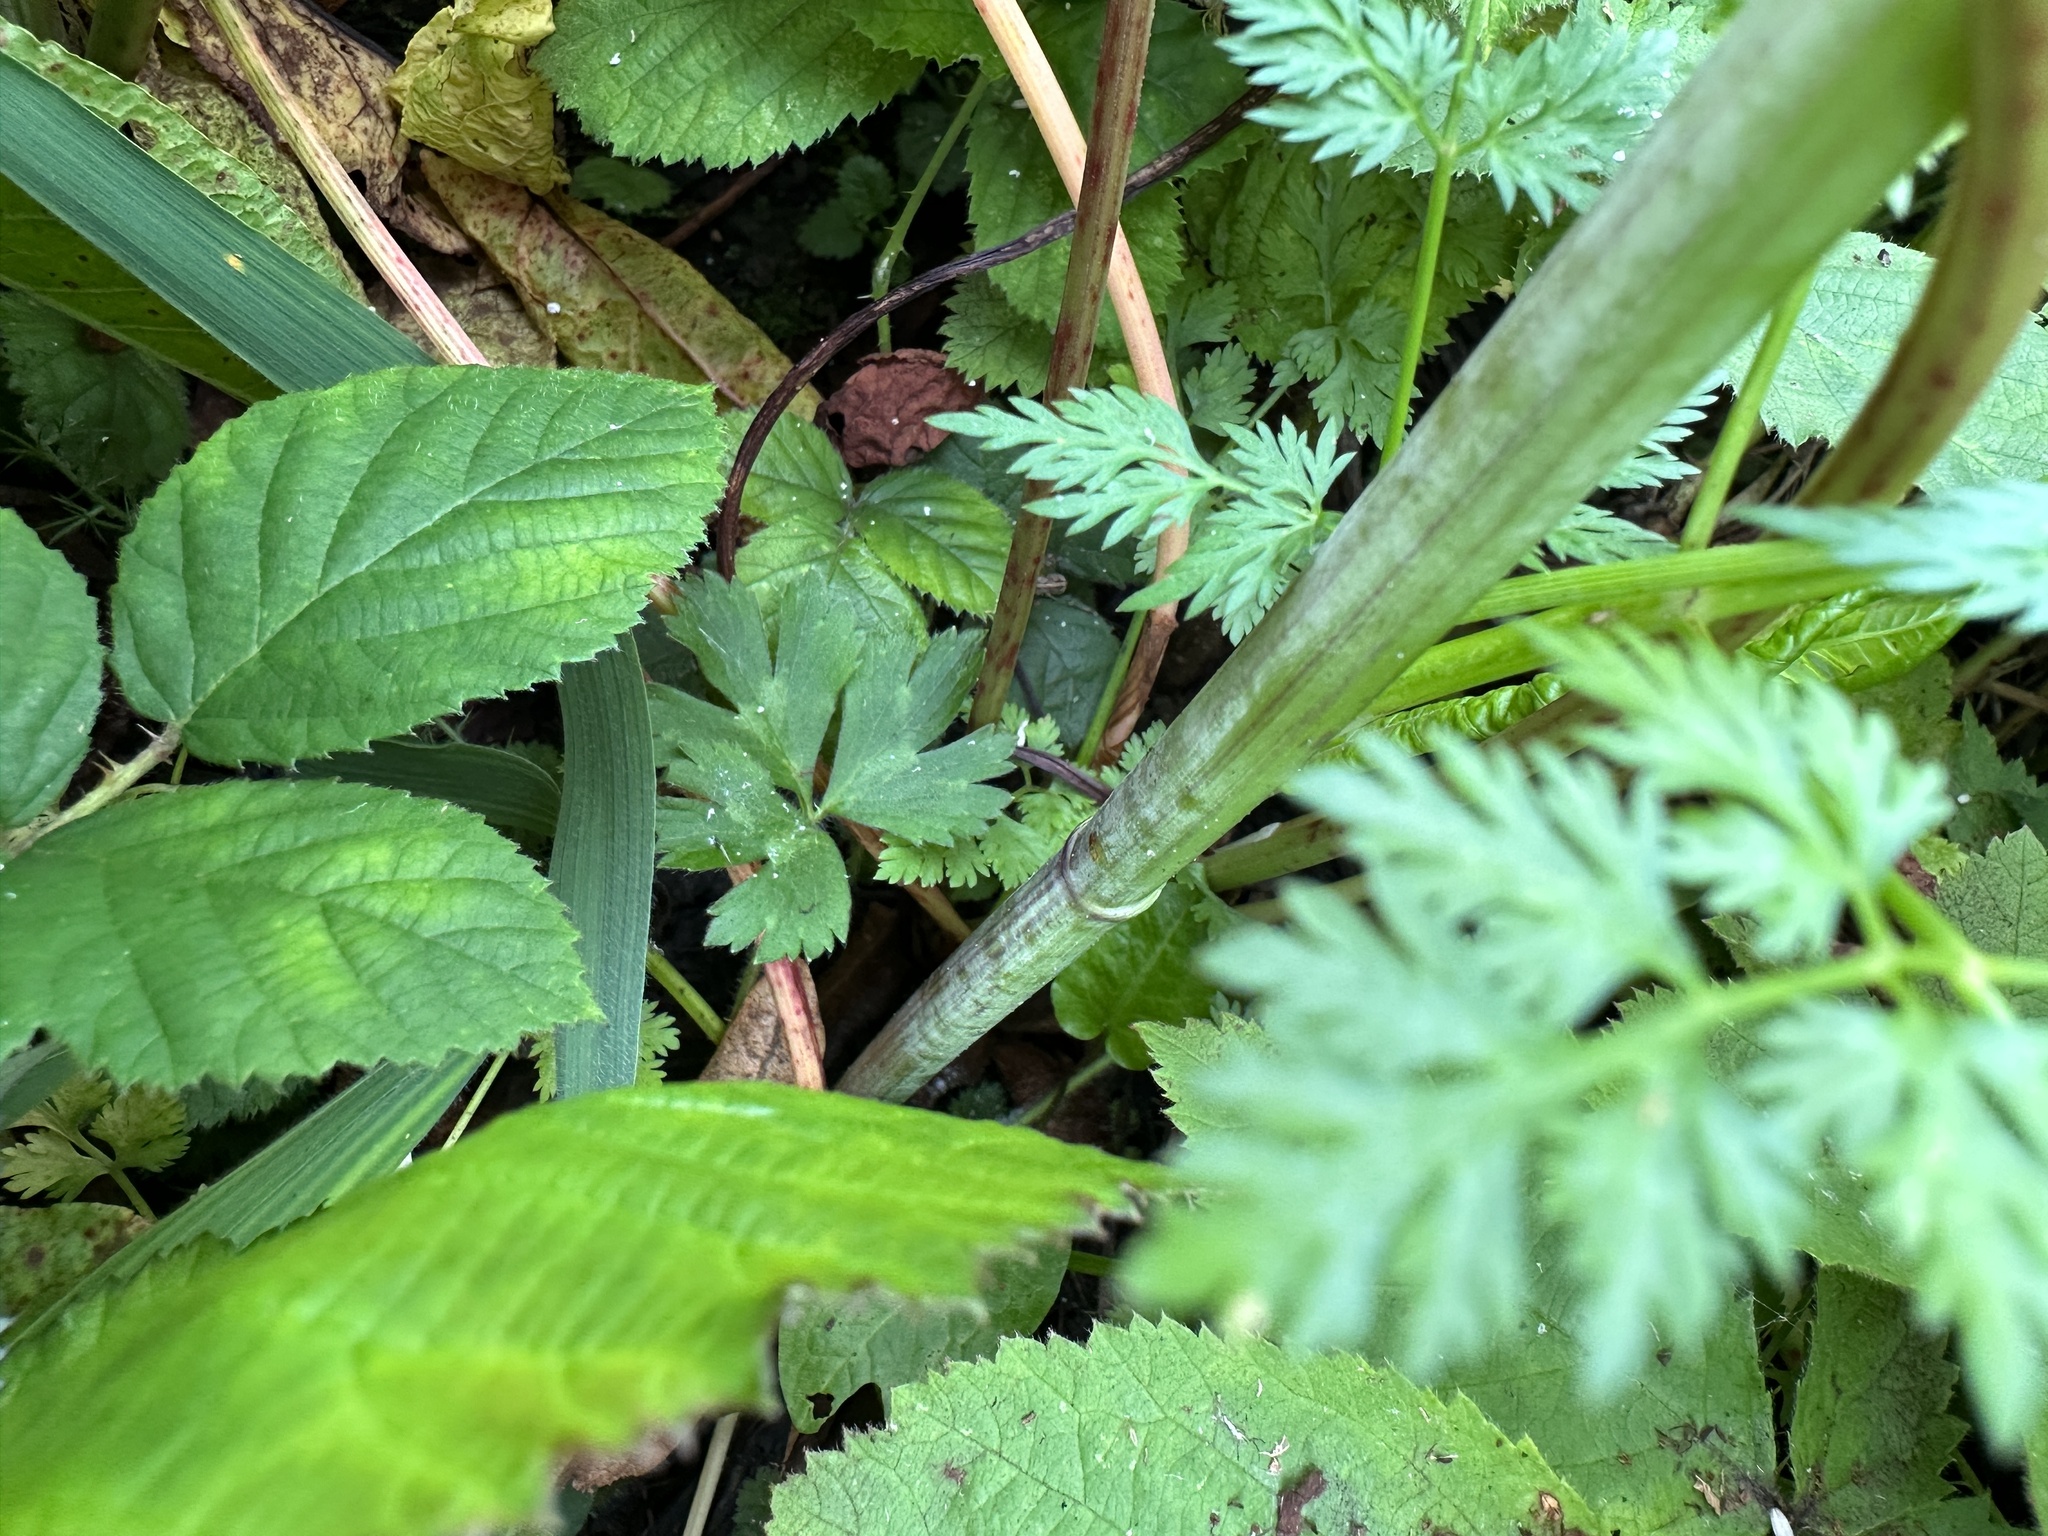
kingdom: Plantae
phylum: Tracheophyta
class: Magnoliopsida
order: Apiales
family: Apiaceae
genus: Aethusa
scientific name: Aethusa cynapium
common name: Fool's parsley
